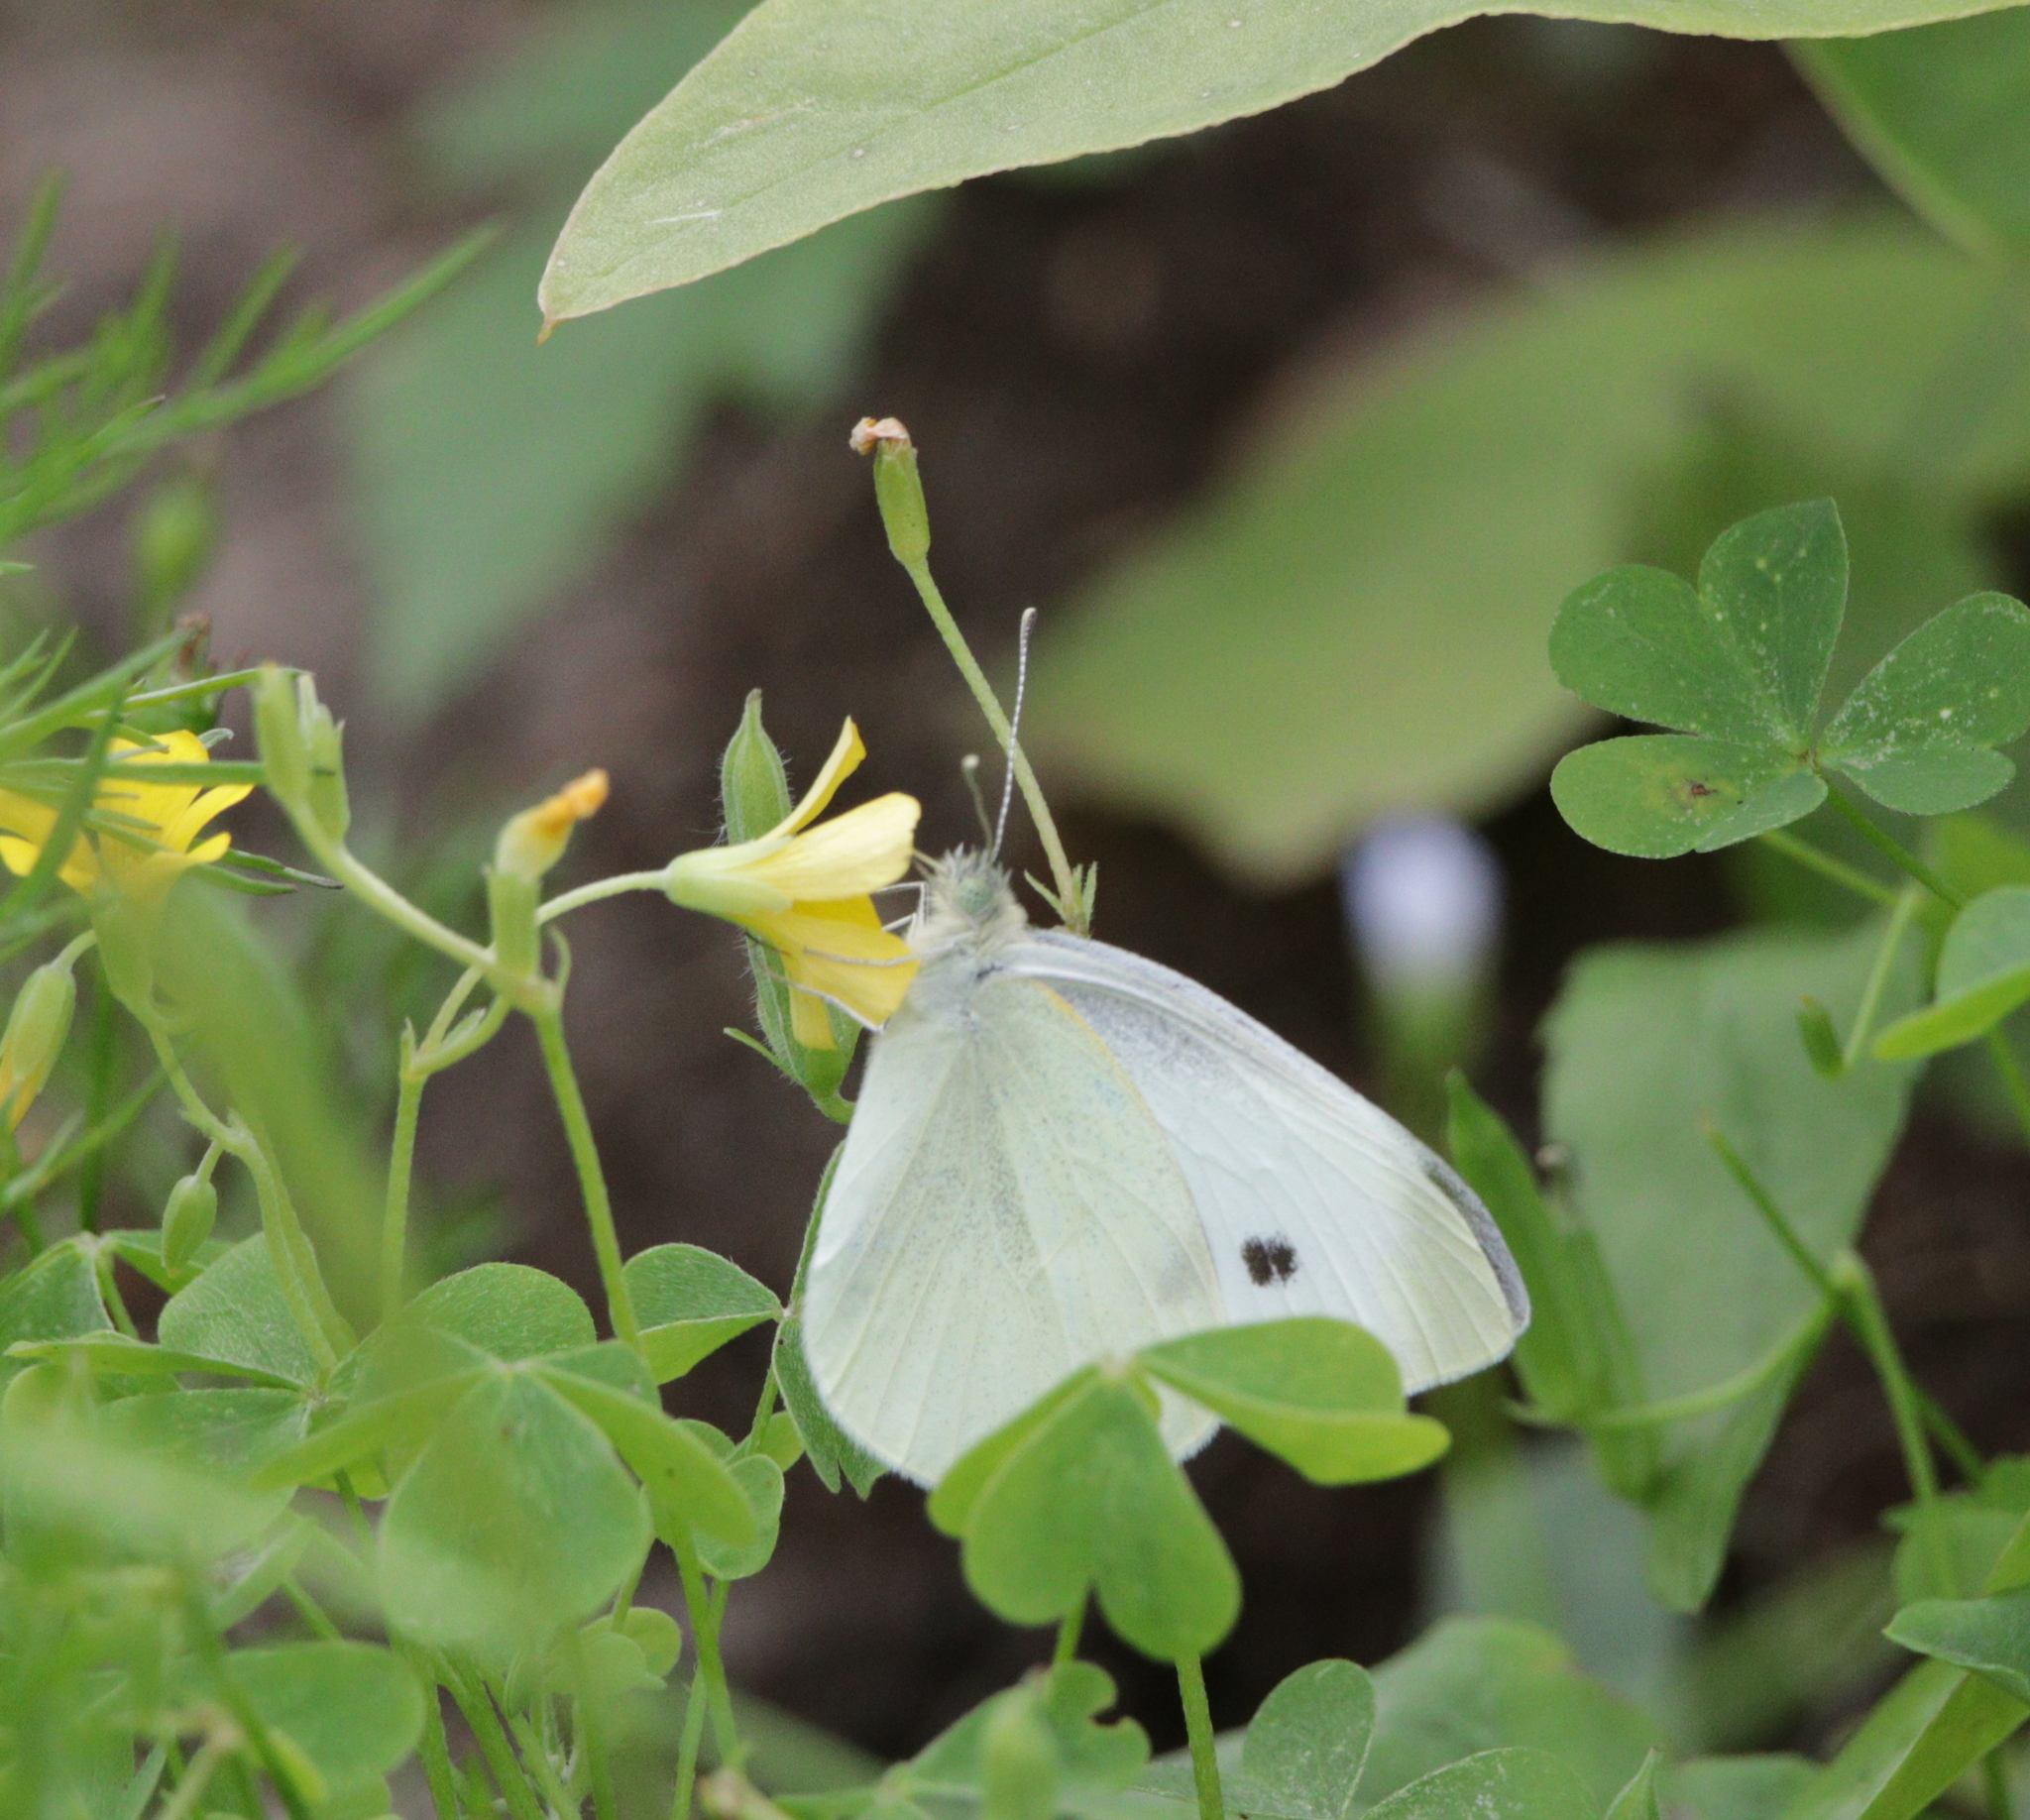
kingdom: Animalia
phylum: Arthropoda
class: Insecta
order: Lepidoptera
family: Pieridae
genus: Pieris
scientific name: Pieris rapae
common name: Small white
